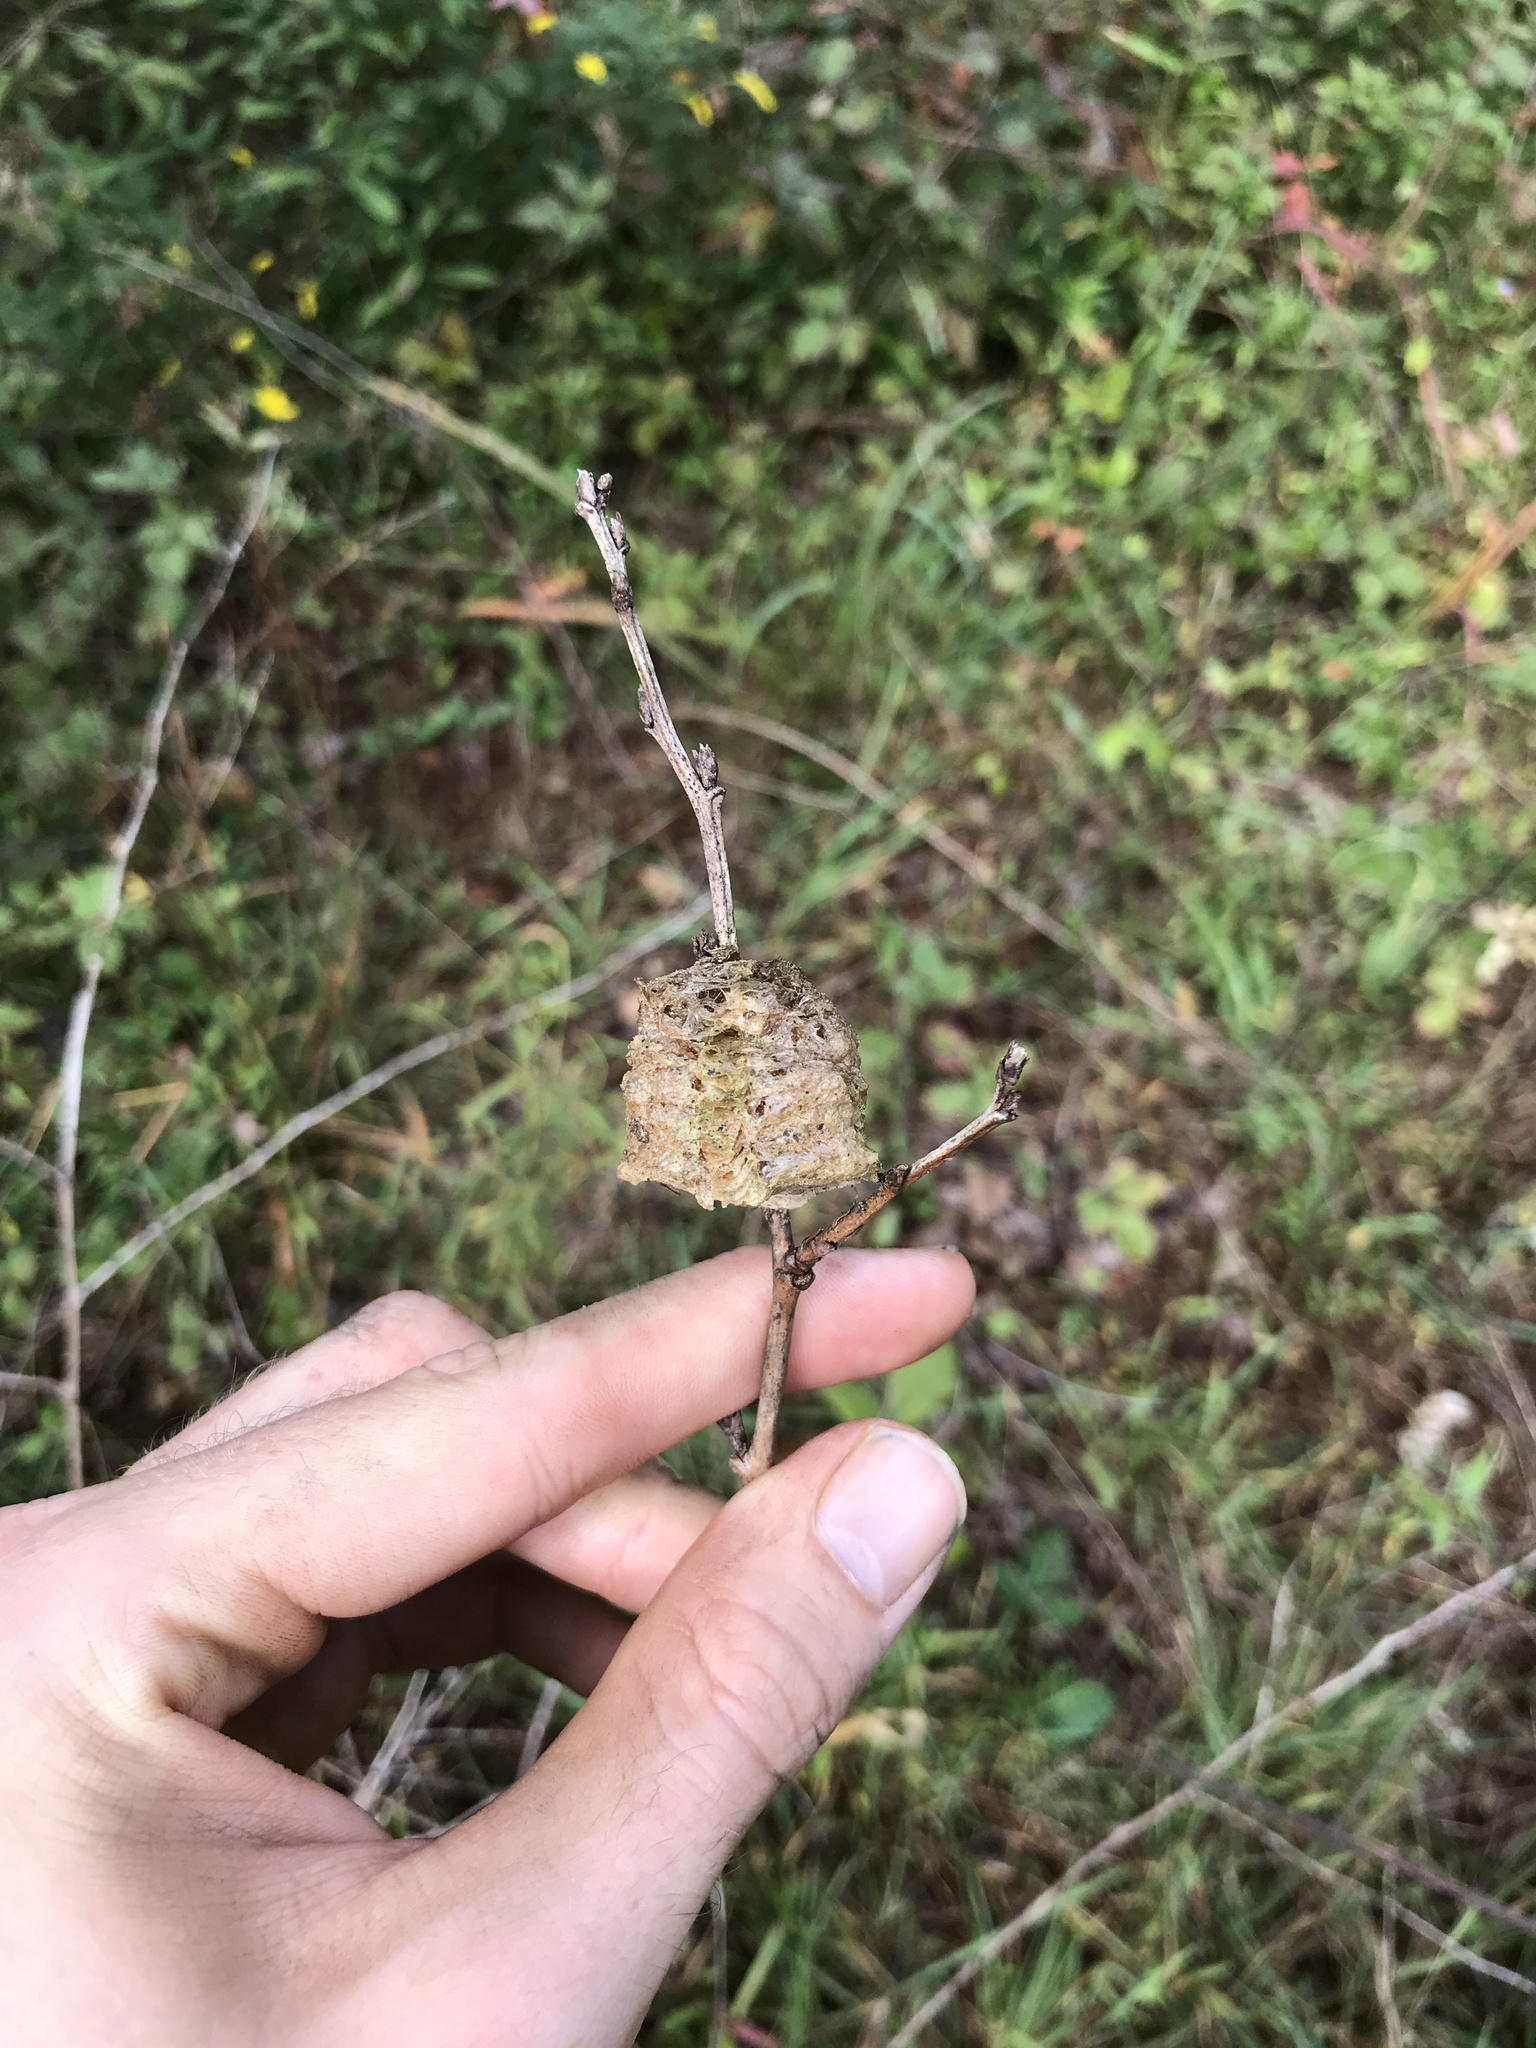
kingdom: Animalia
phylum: Arthropoda
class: Insecta
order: Mantodea
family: Mantidae
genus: Tenodera
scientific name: Tenodera sinensis
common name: Chinese mantis
